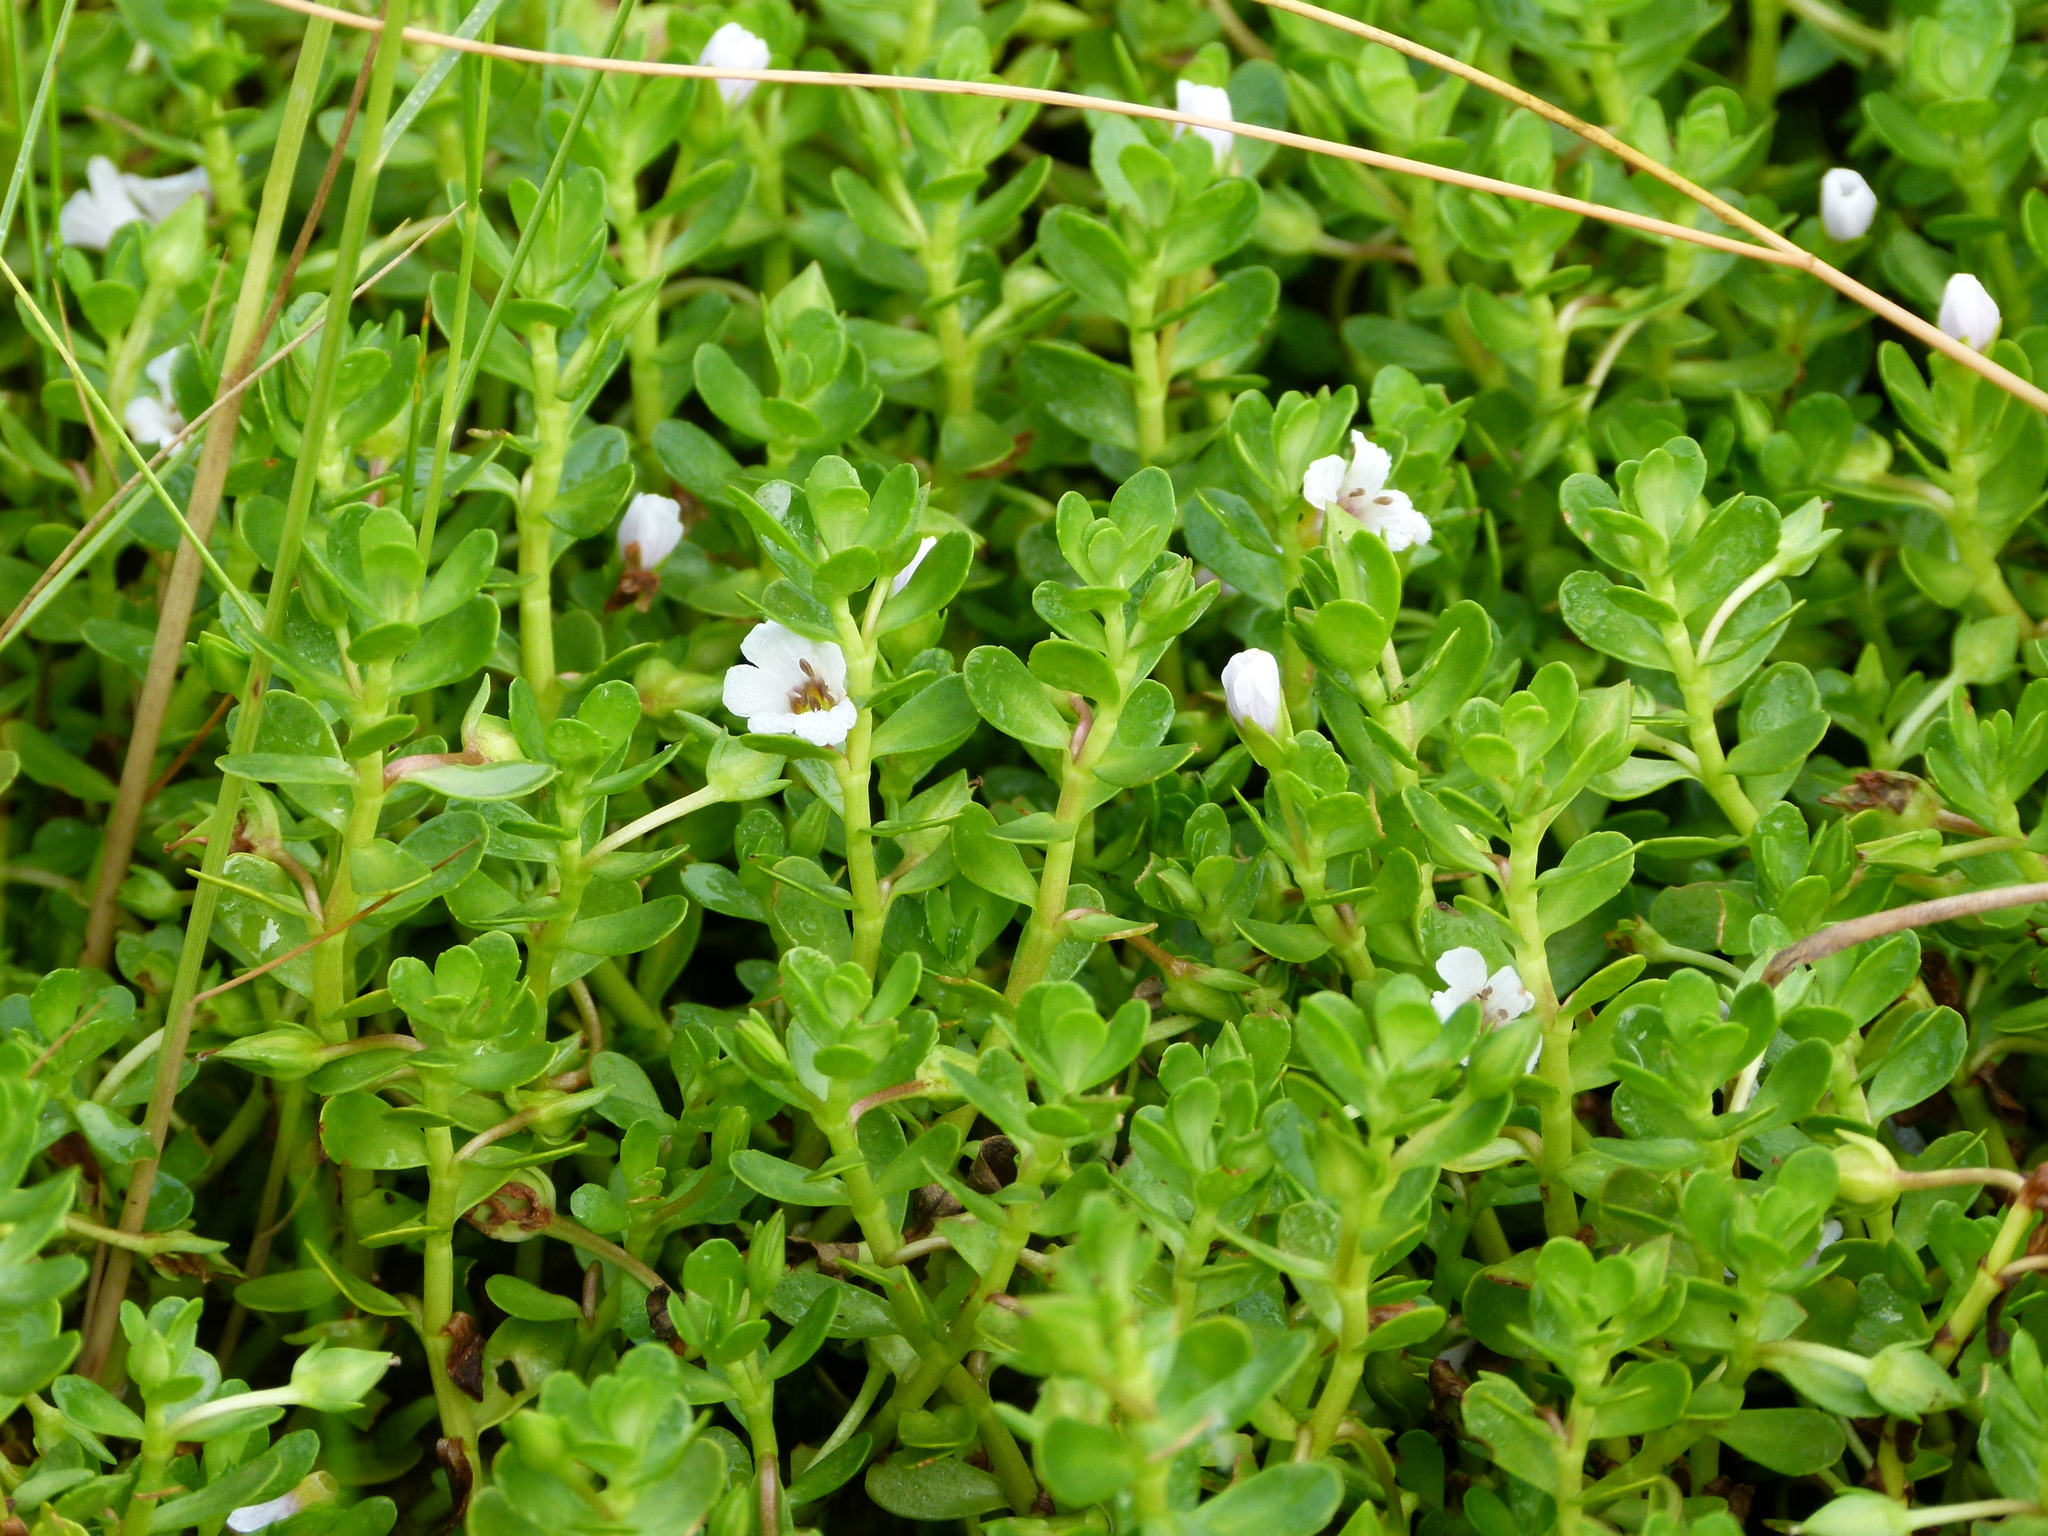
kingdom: Plantae
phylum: Tracheophyta
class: Magnoliopsida
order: Lamiales
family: Plantaginaceae
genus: Bacopa
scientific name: Bacopa monnieri
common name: Indian-pennywort
